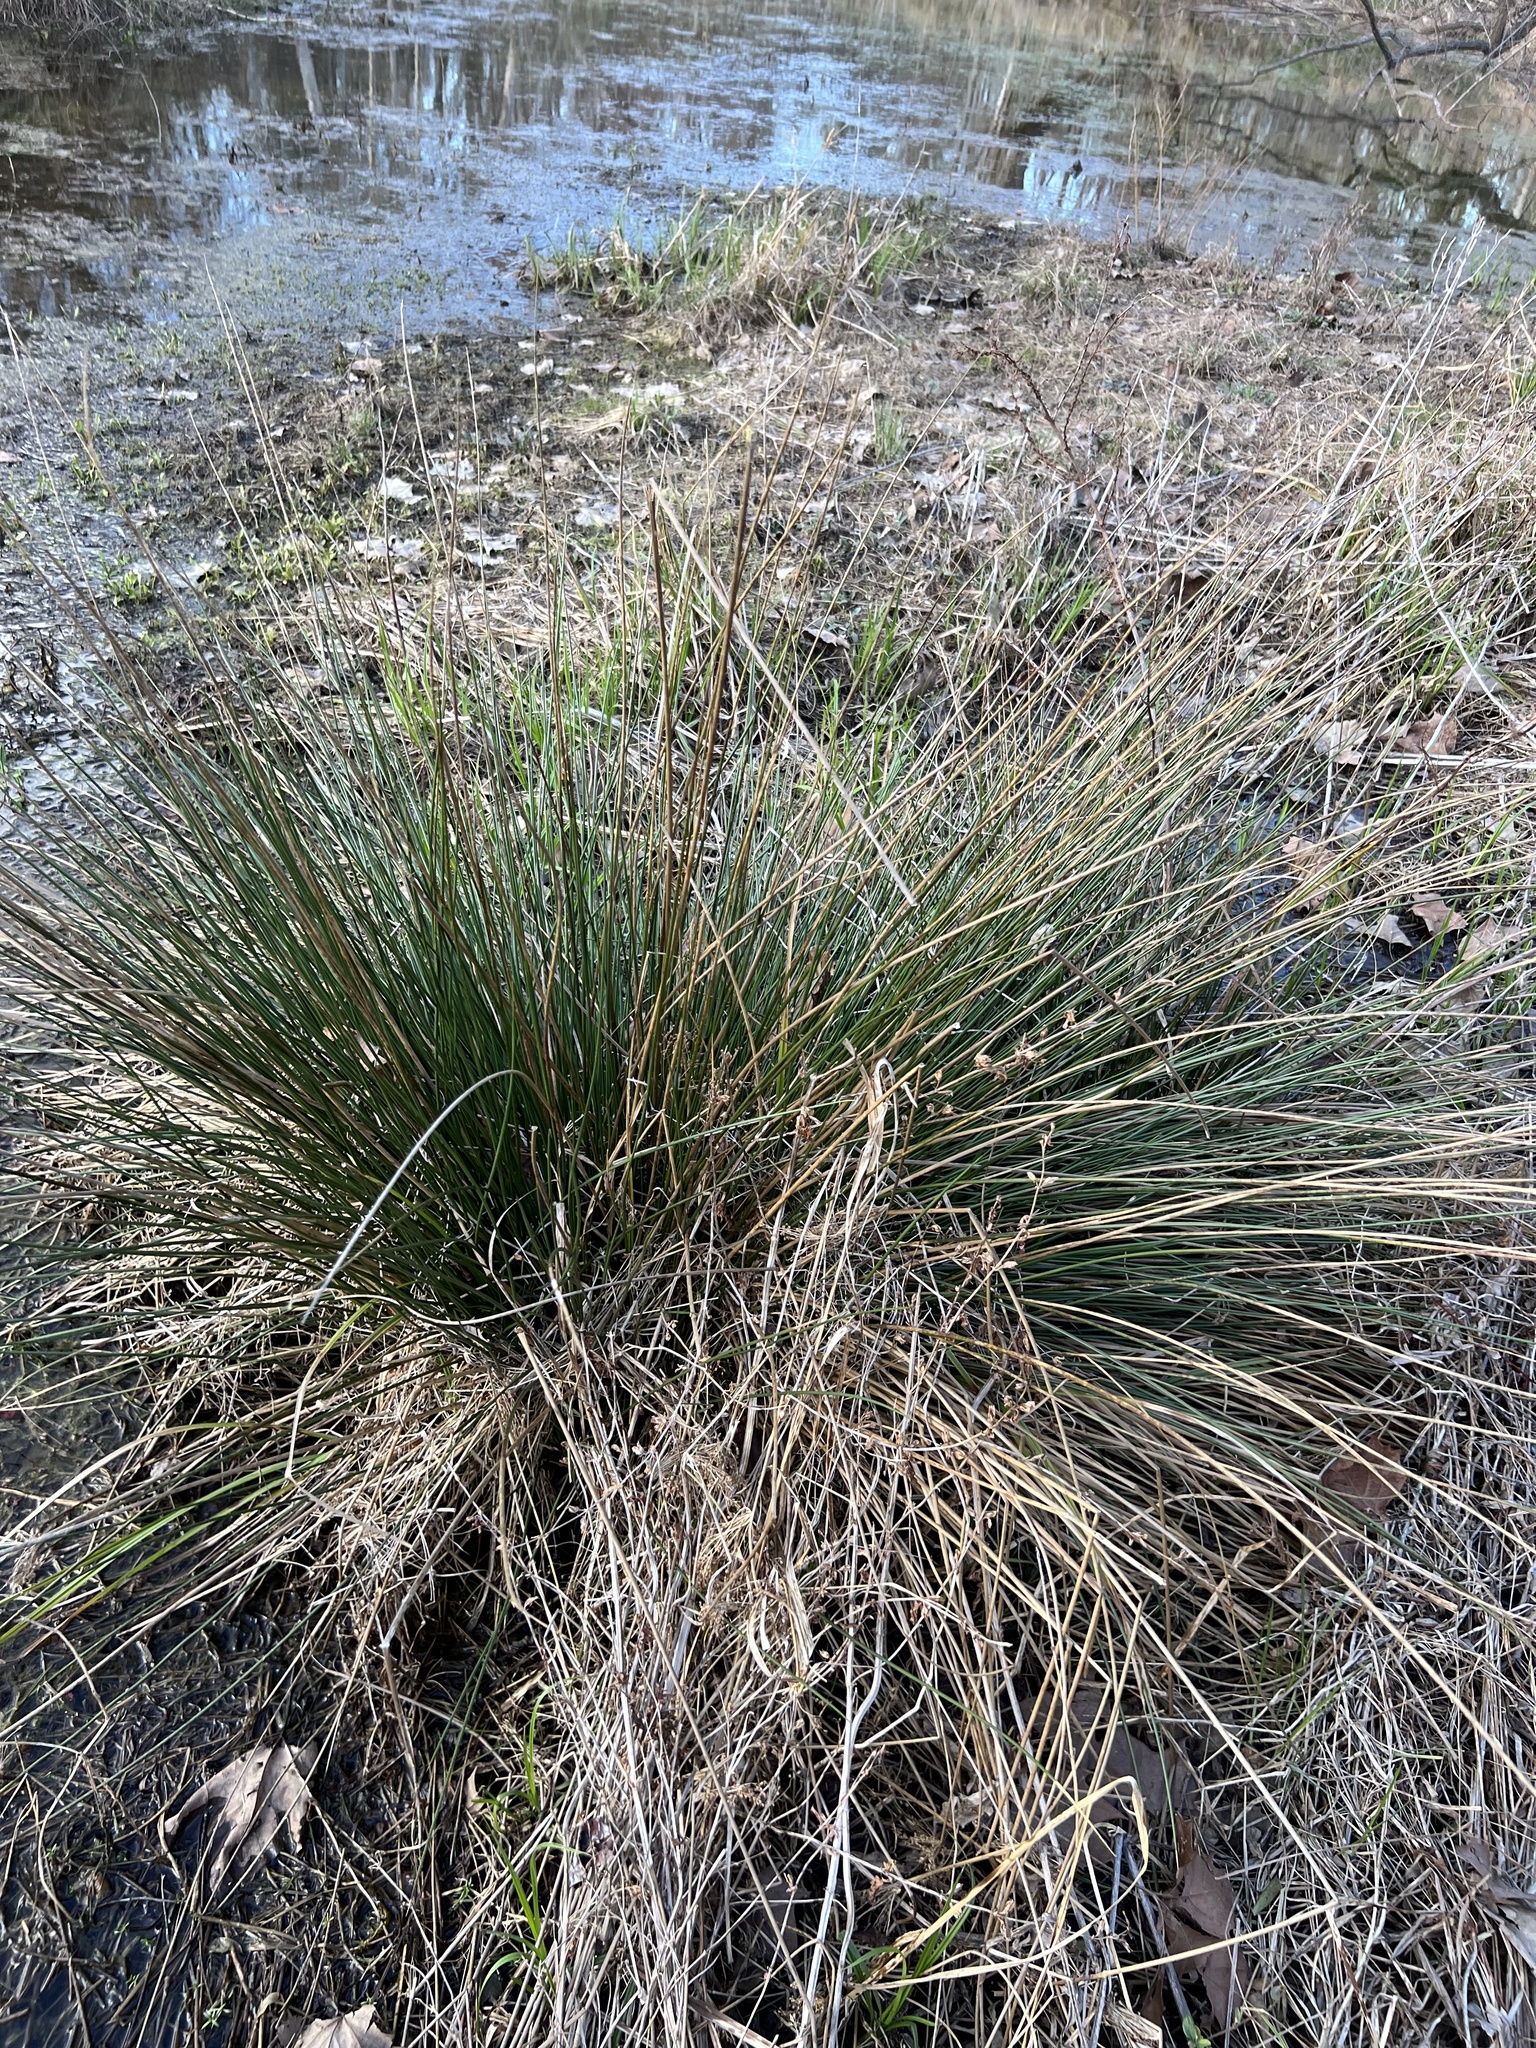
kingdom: Plantae
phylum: Tracheophyta
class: Liliopsida
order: Poales
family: Juncaceae
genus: Juncus
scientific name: Juncus effusus
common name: Soft rush
